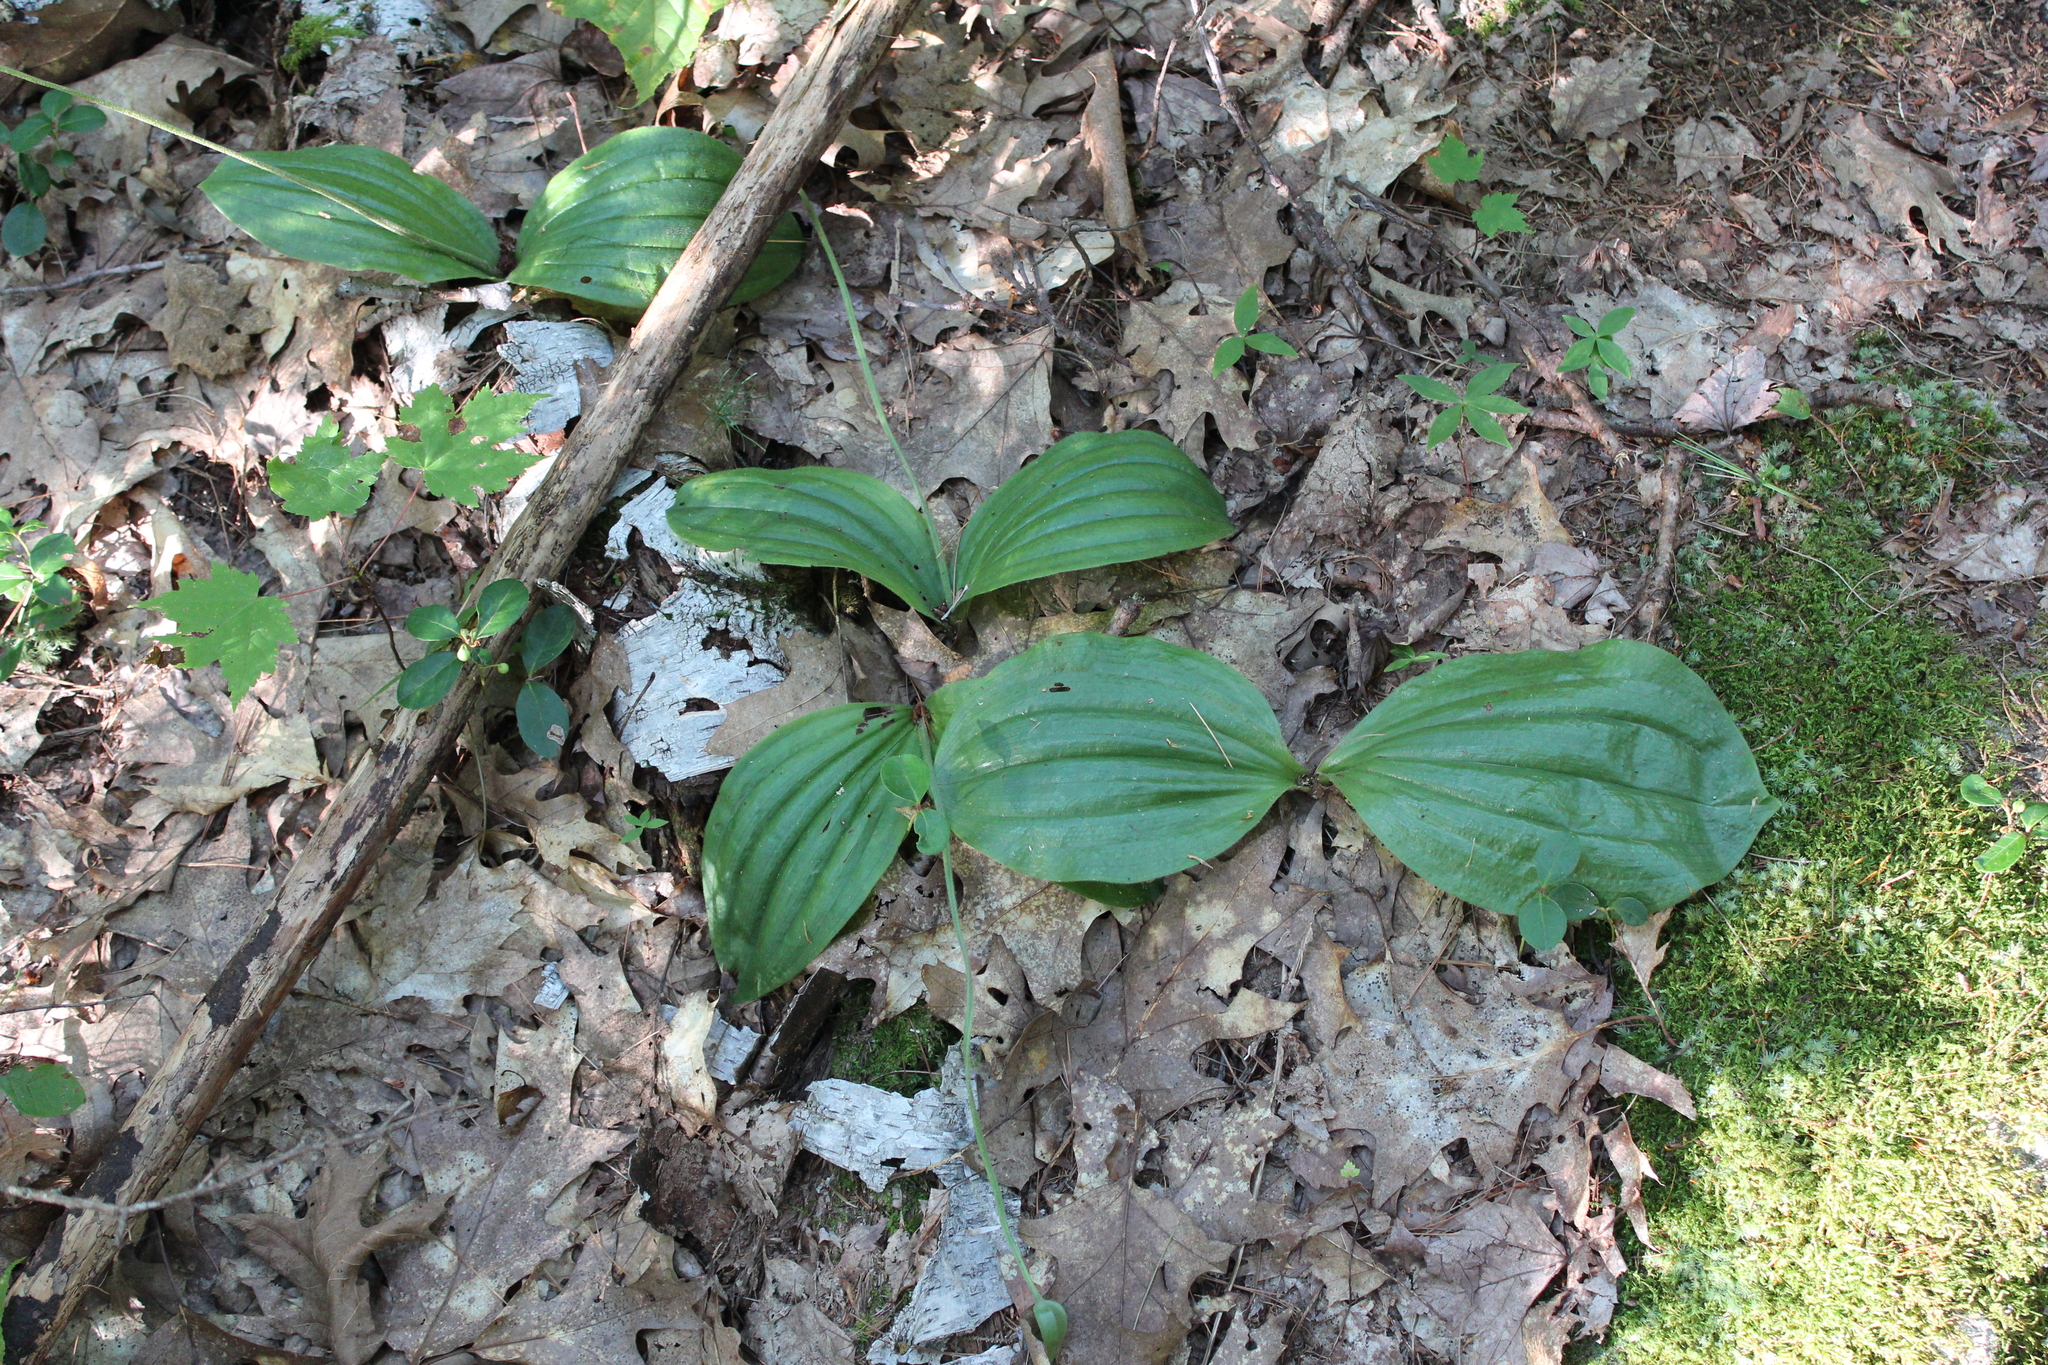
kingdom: Plantae
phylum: Tracheophyta
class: Liliopsida
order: Asparagales
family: Orchidaceae
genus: Cypripedium
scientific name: Cypripedium acaule
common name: Pink lady's-slipper
